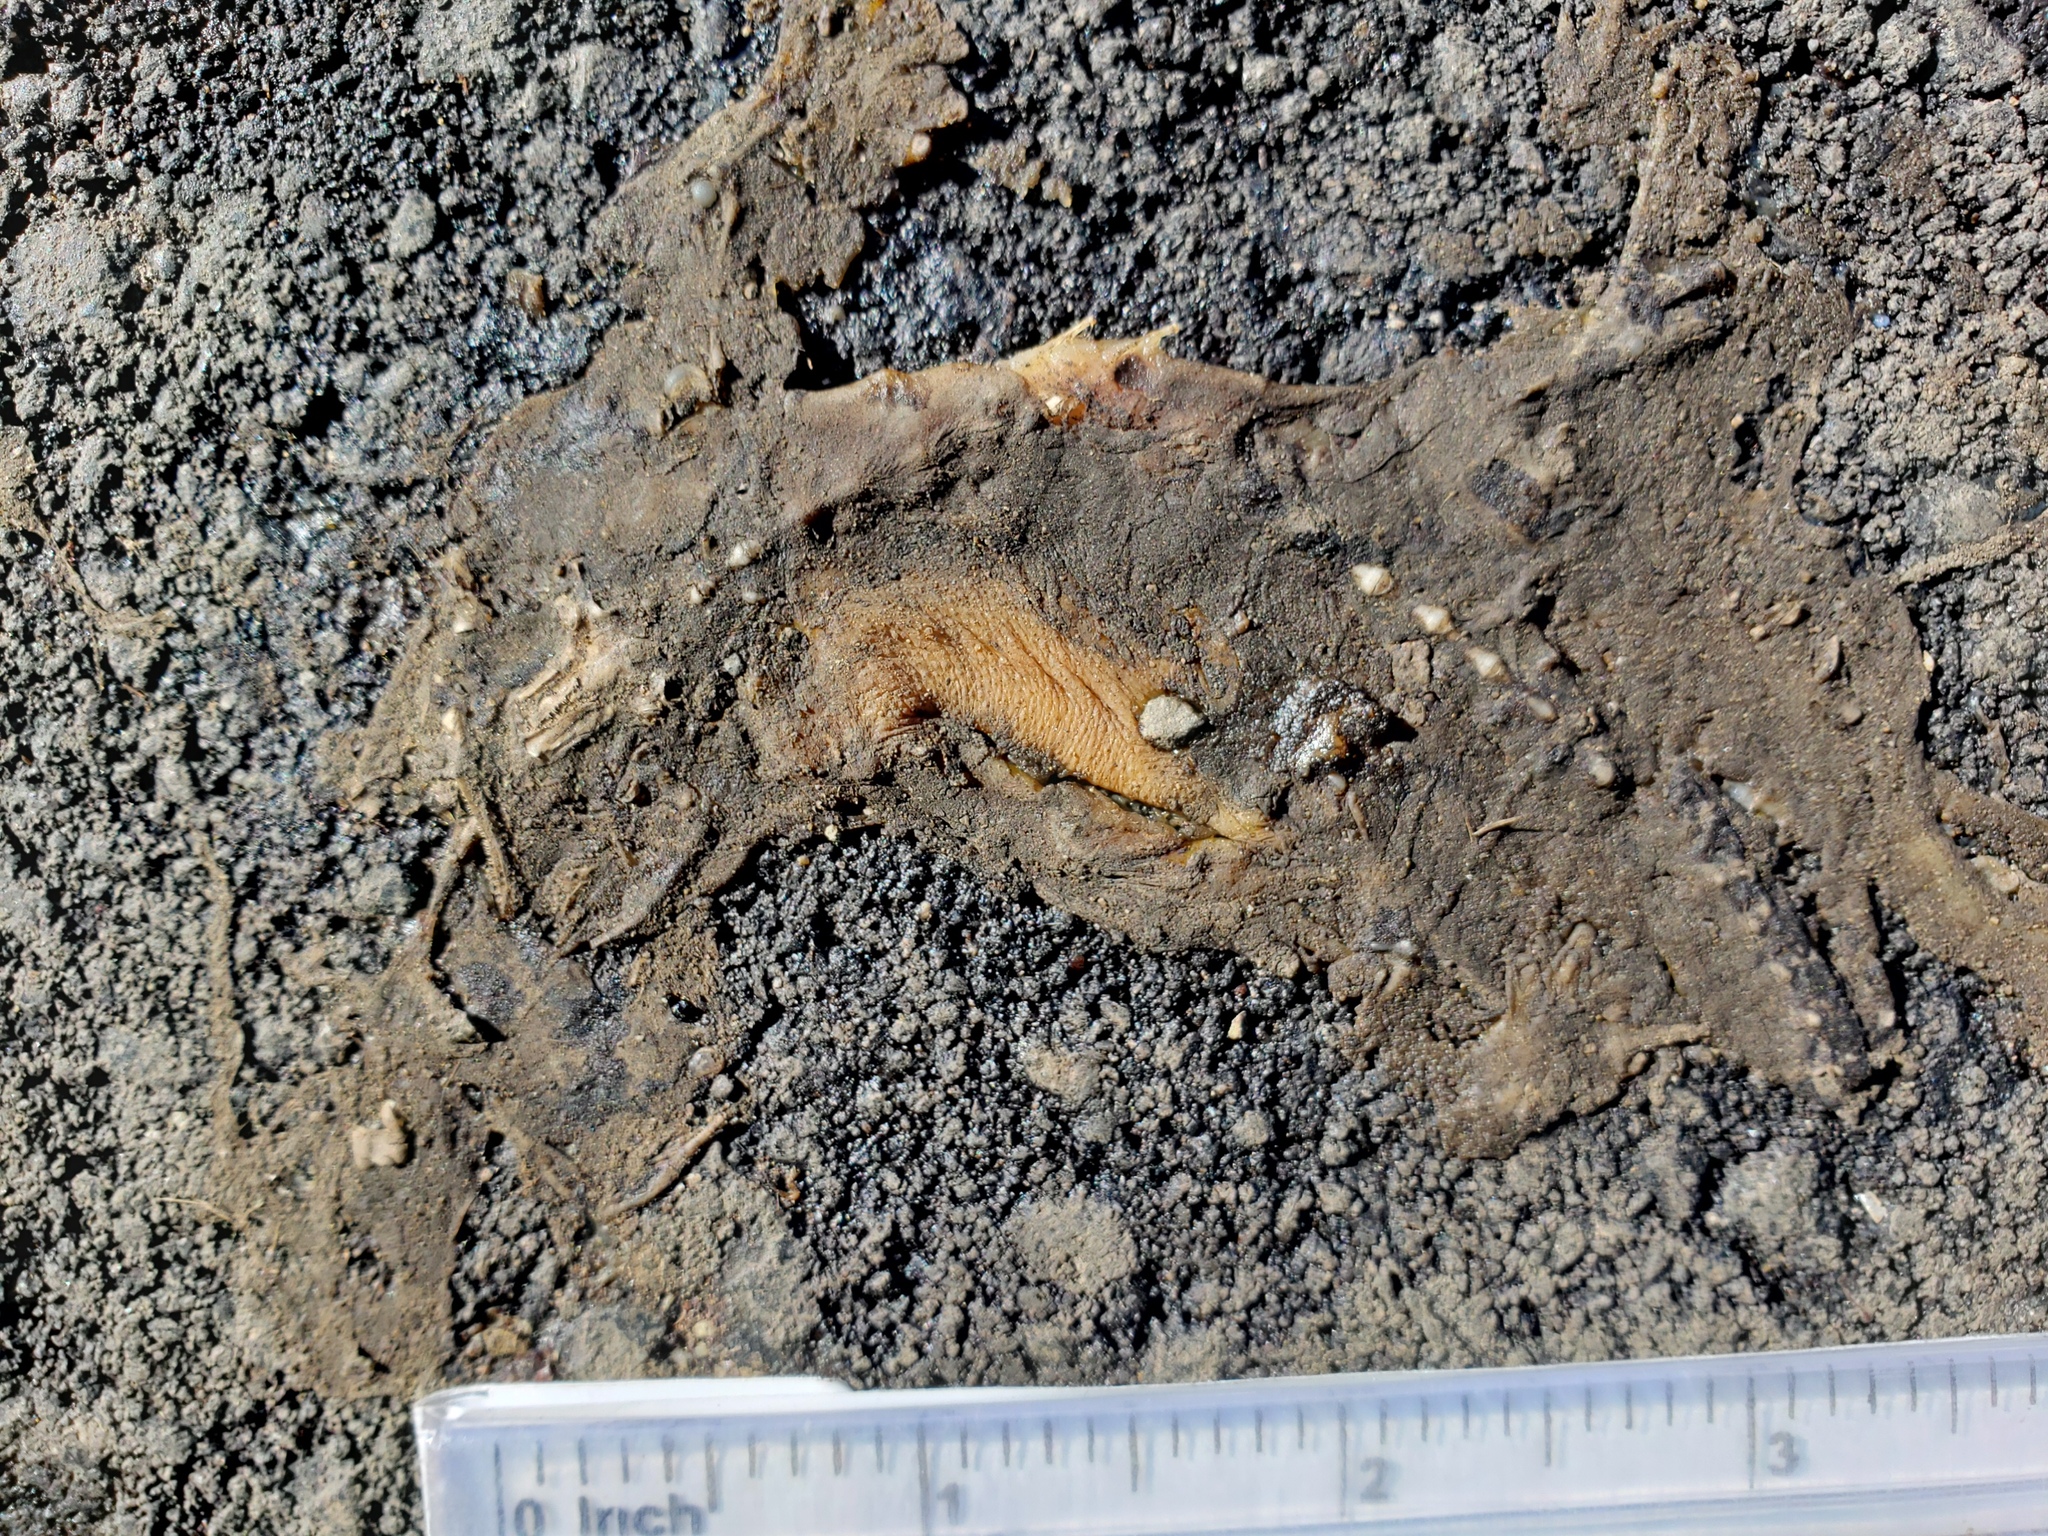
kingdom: Animalia
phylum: Chordata
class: Amphibia
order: Caudata
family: Salamandridae
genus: Taricha
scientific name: Taricha
